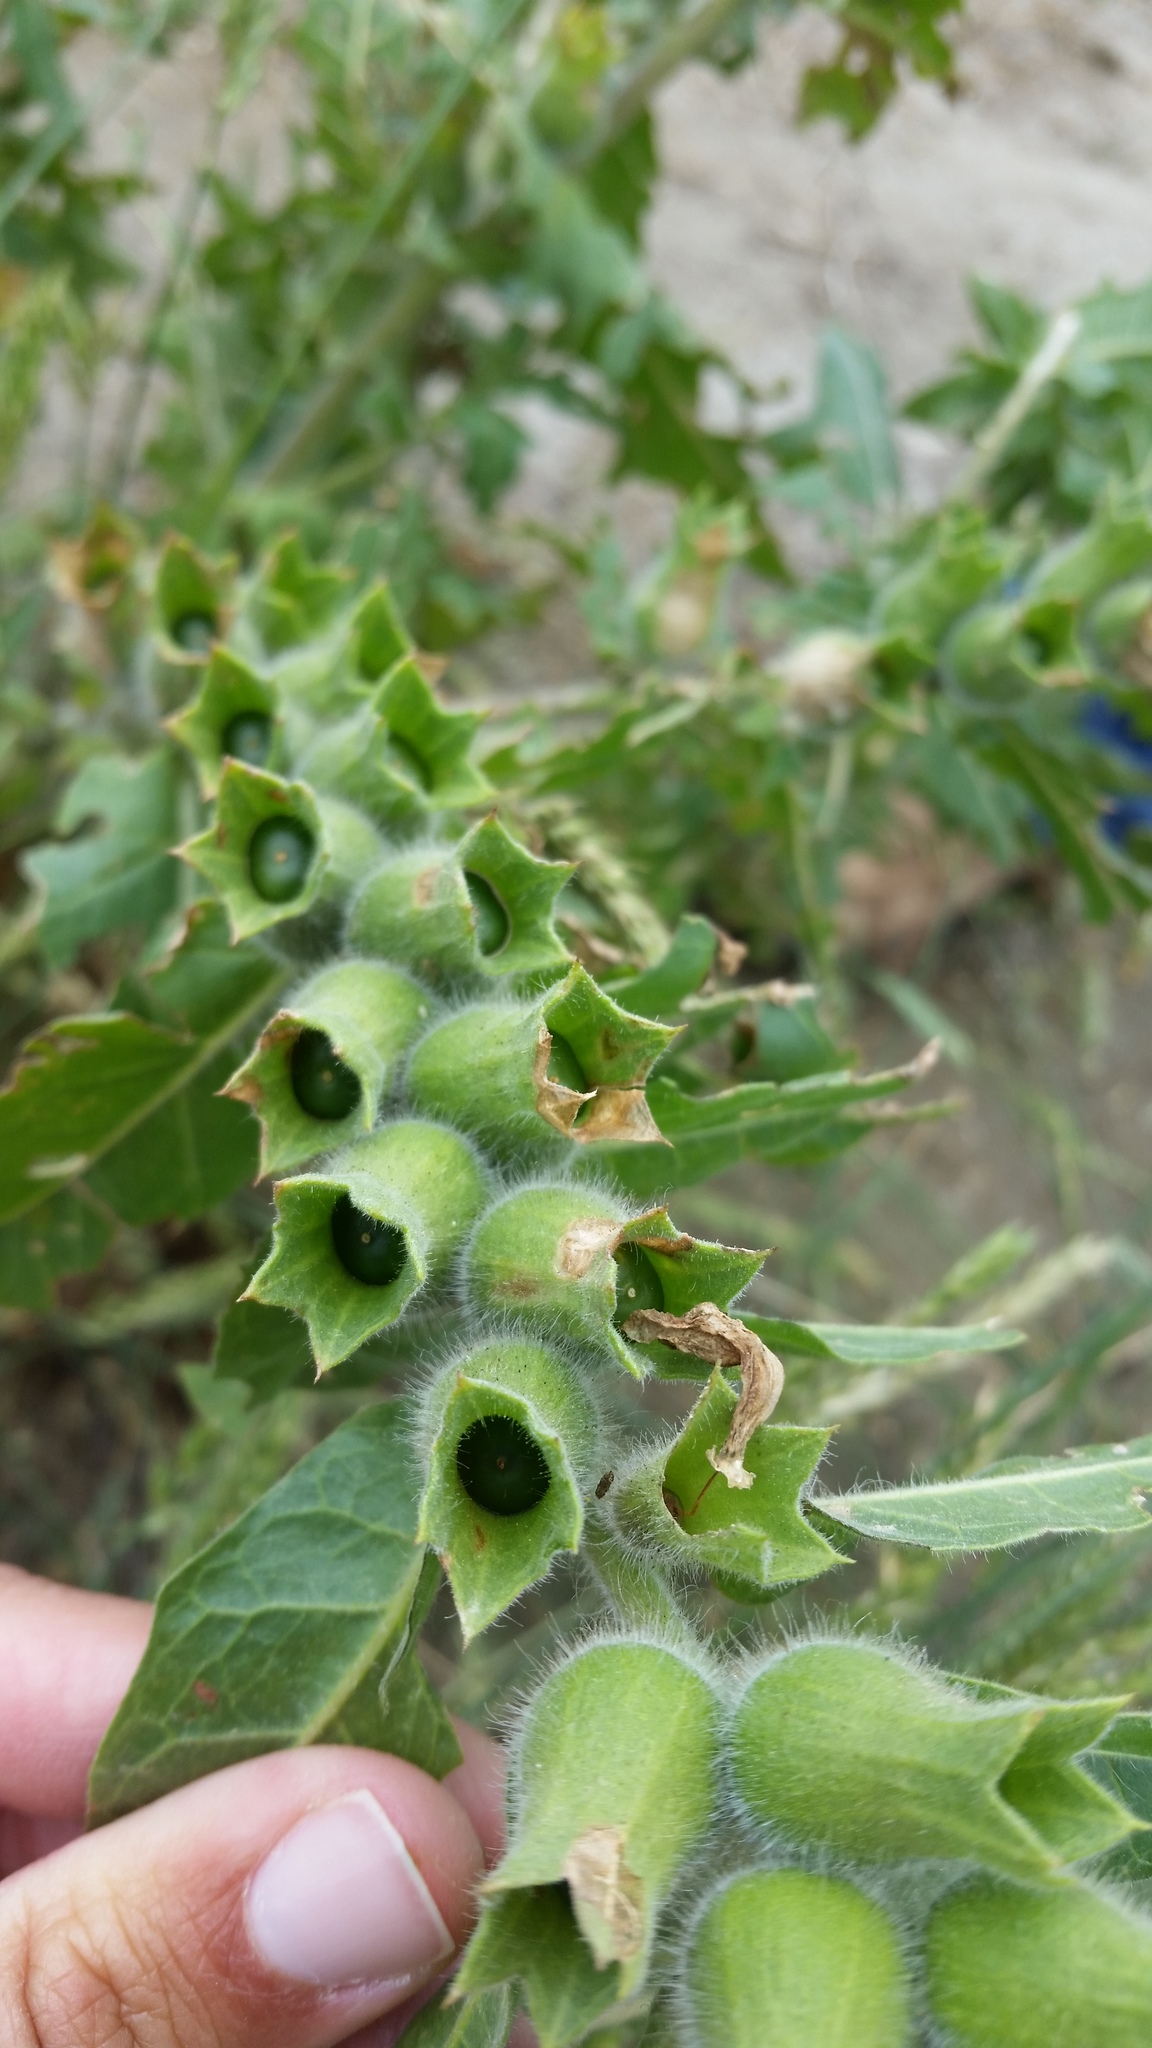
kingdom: Plantae
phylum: Tracheophyta
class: Magnoliopsida
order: Solanales
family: Solanaceae
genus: Hyoscyamus
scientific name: Hyoscyamus niger
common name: Henbane
